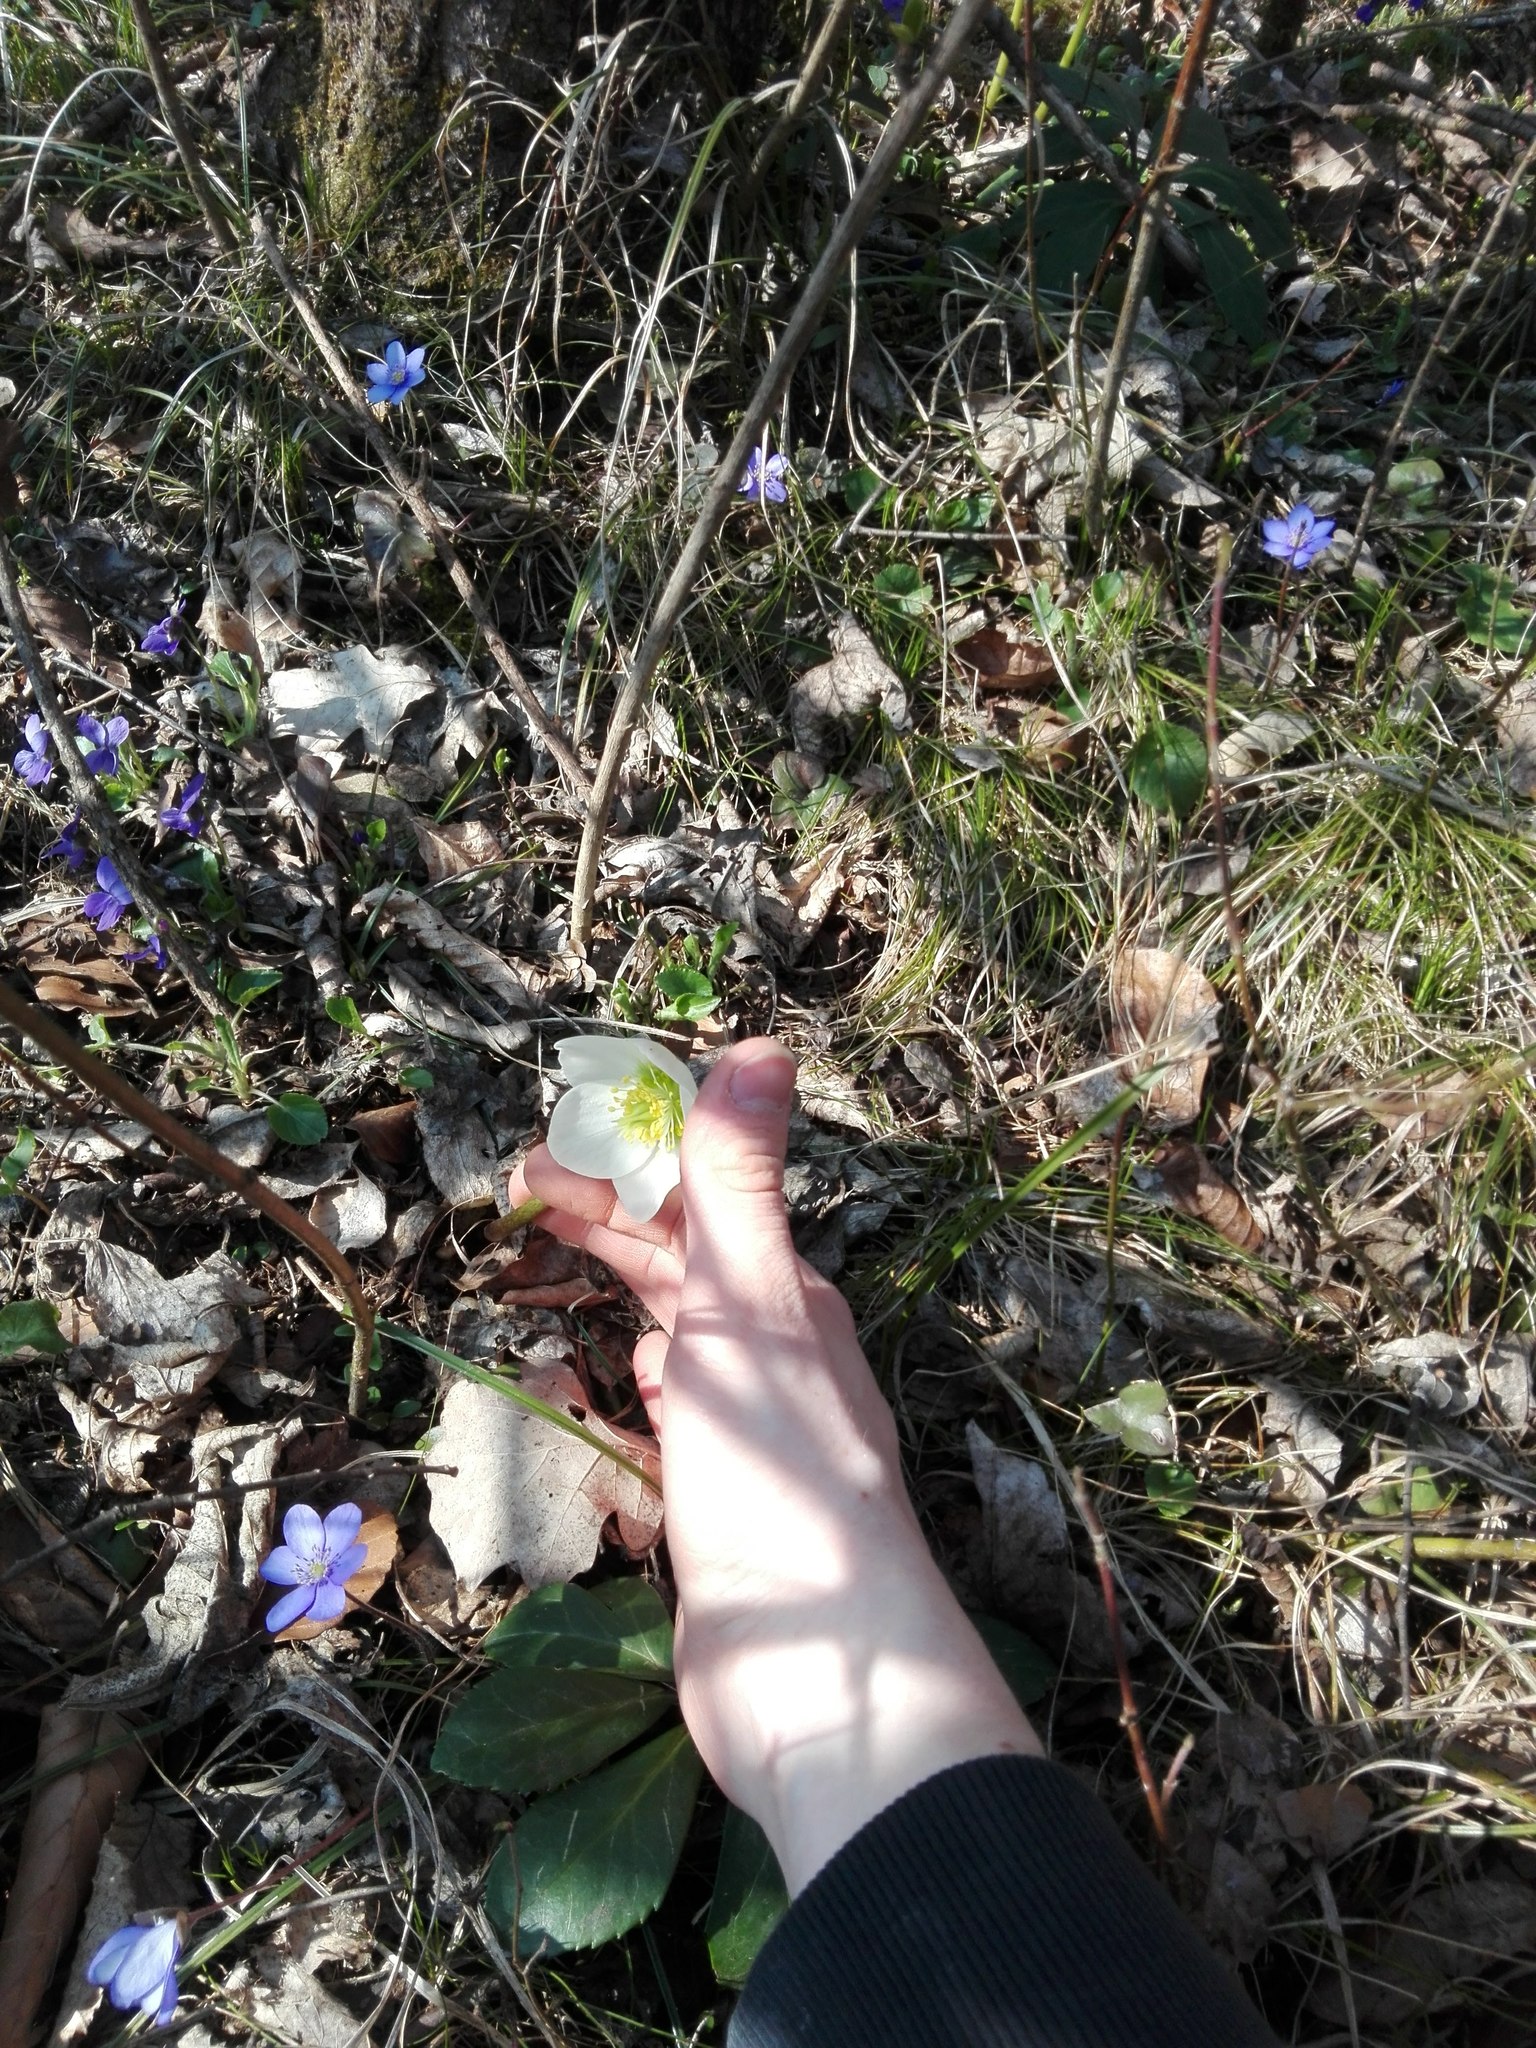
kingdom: Plantae
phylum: Tracheophyta
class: Magnoliopsida
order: Ranunculales
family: Ranunculaceae
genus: Helleborus
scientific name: Helleborus niger
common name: Black hellebore
